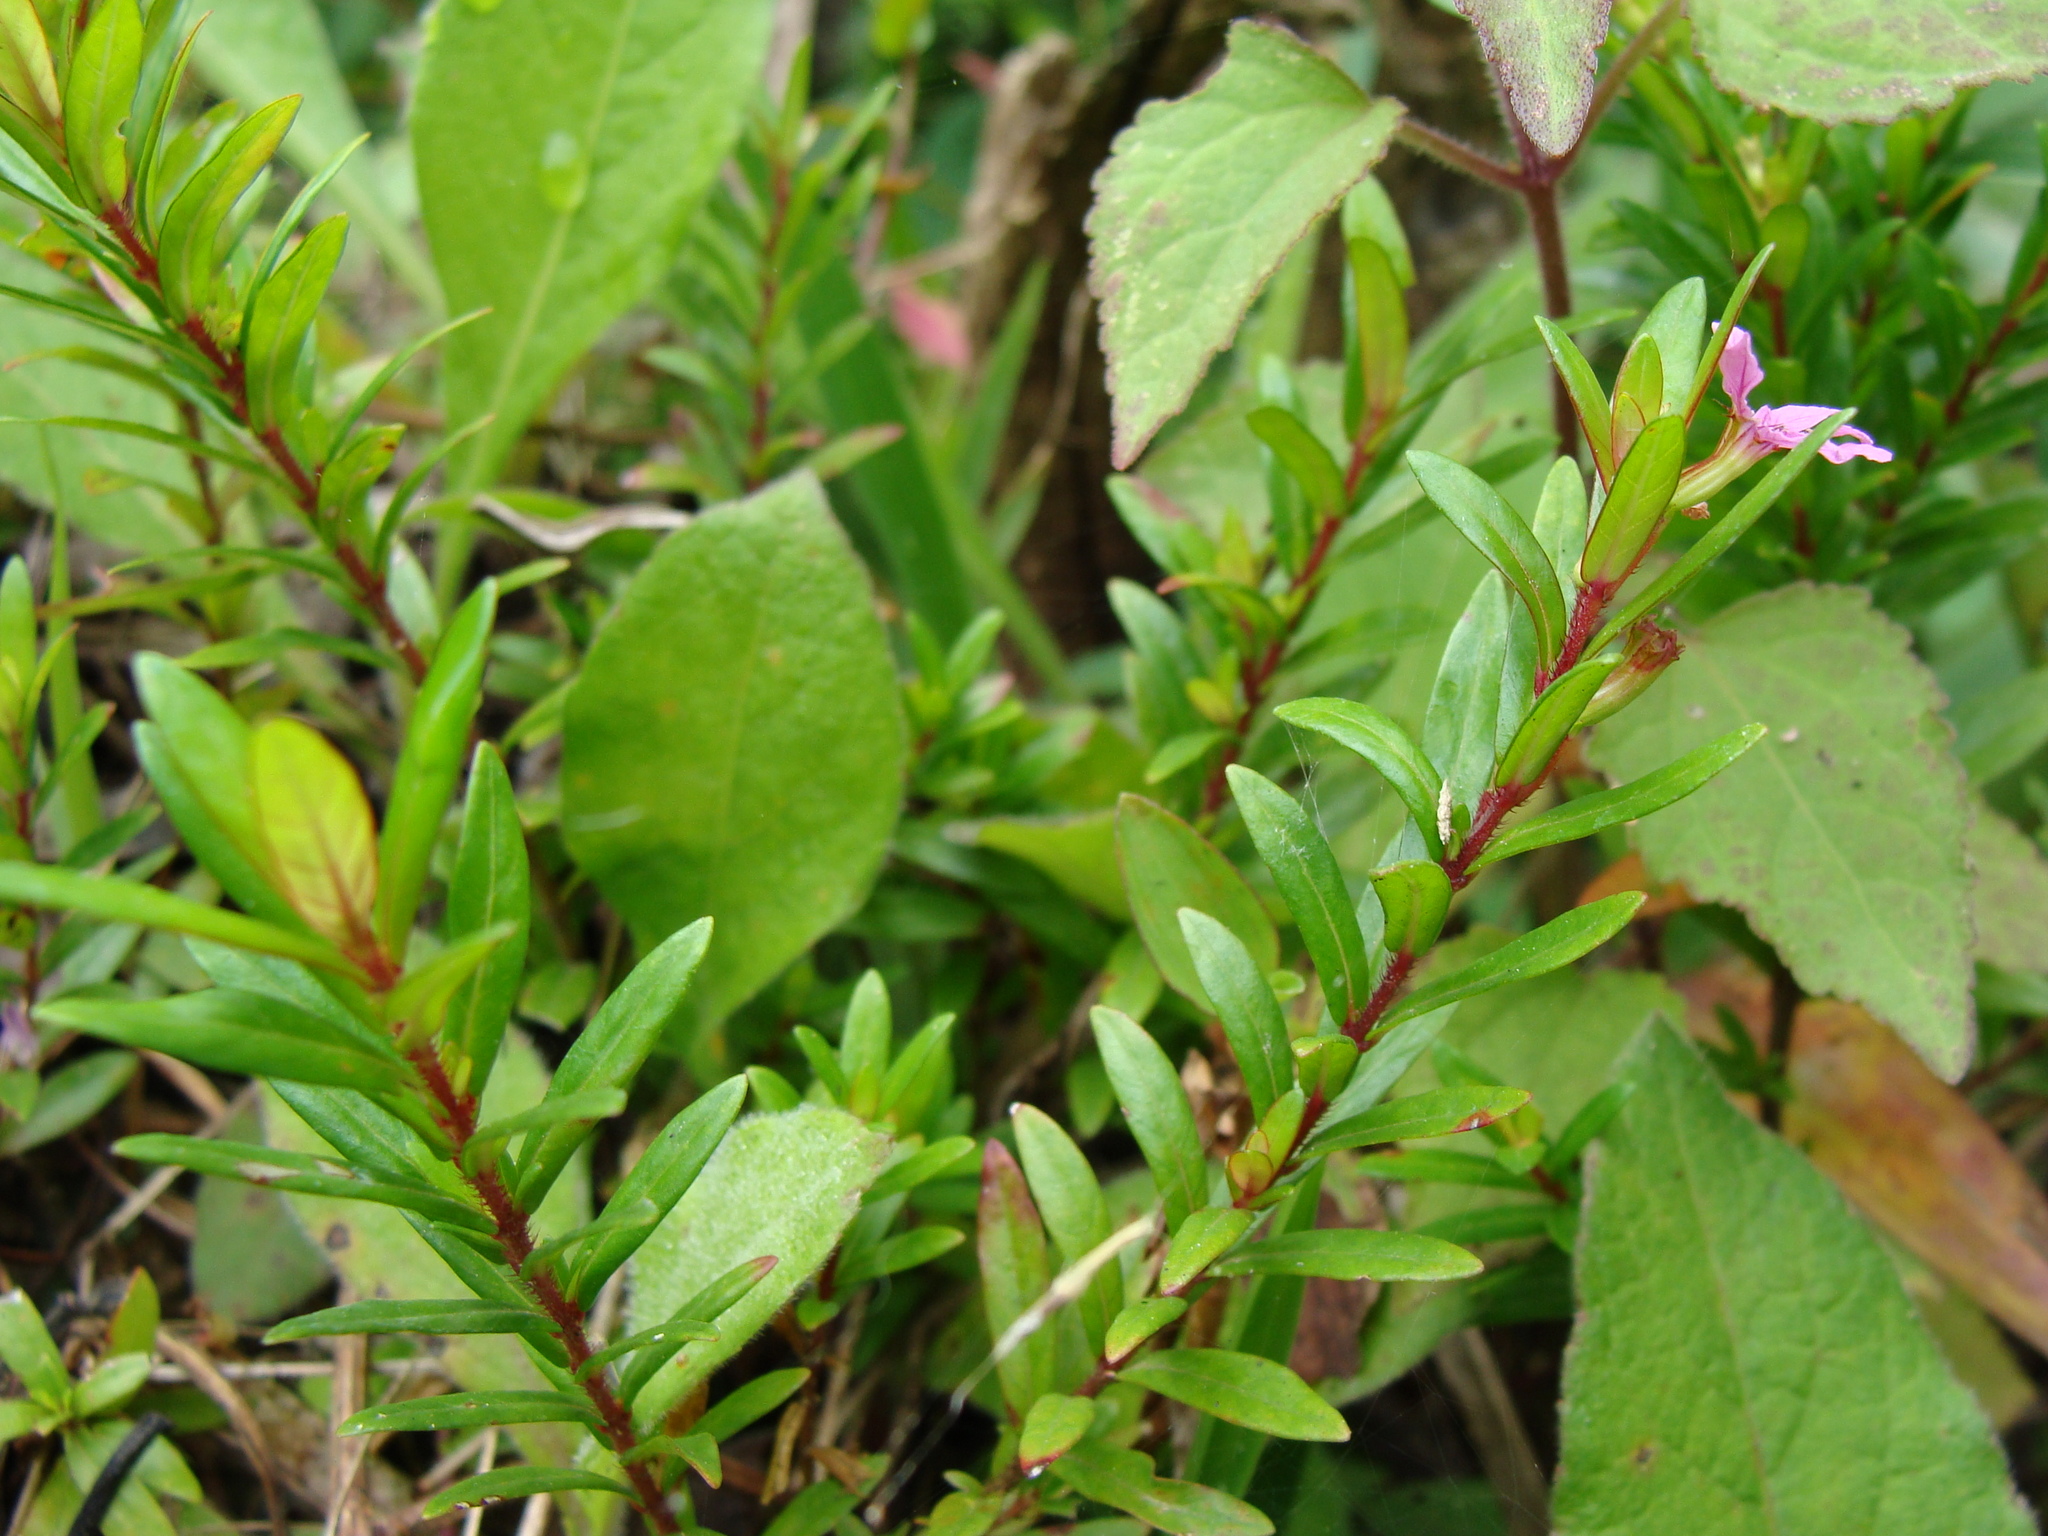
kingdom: Plantae
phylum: Tracheophyta
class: Magnoliopsida
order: Myrtales
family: Lythraceae
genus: Cuphea
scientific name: Cuphea hyssopifolia
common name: False heather
